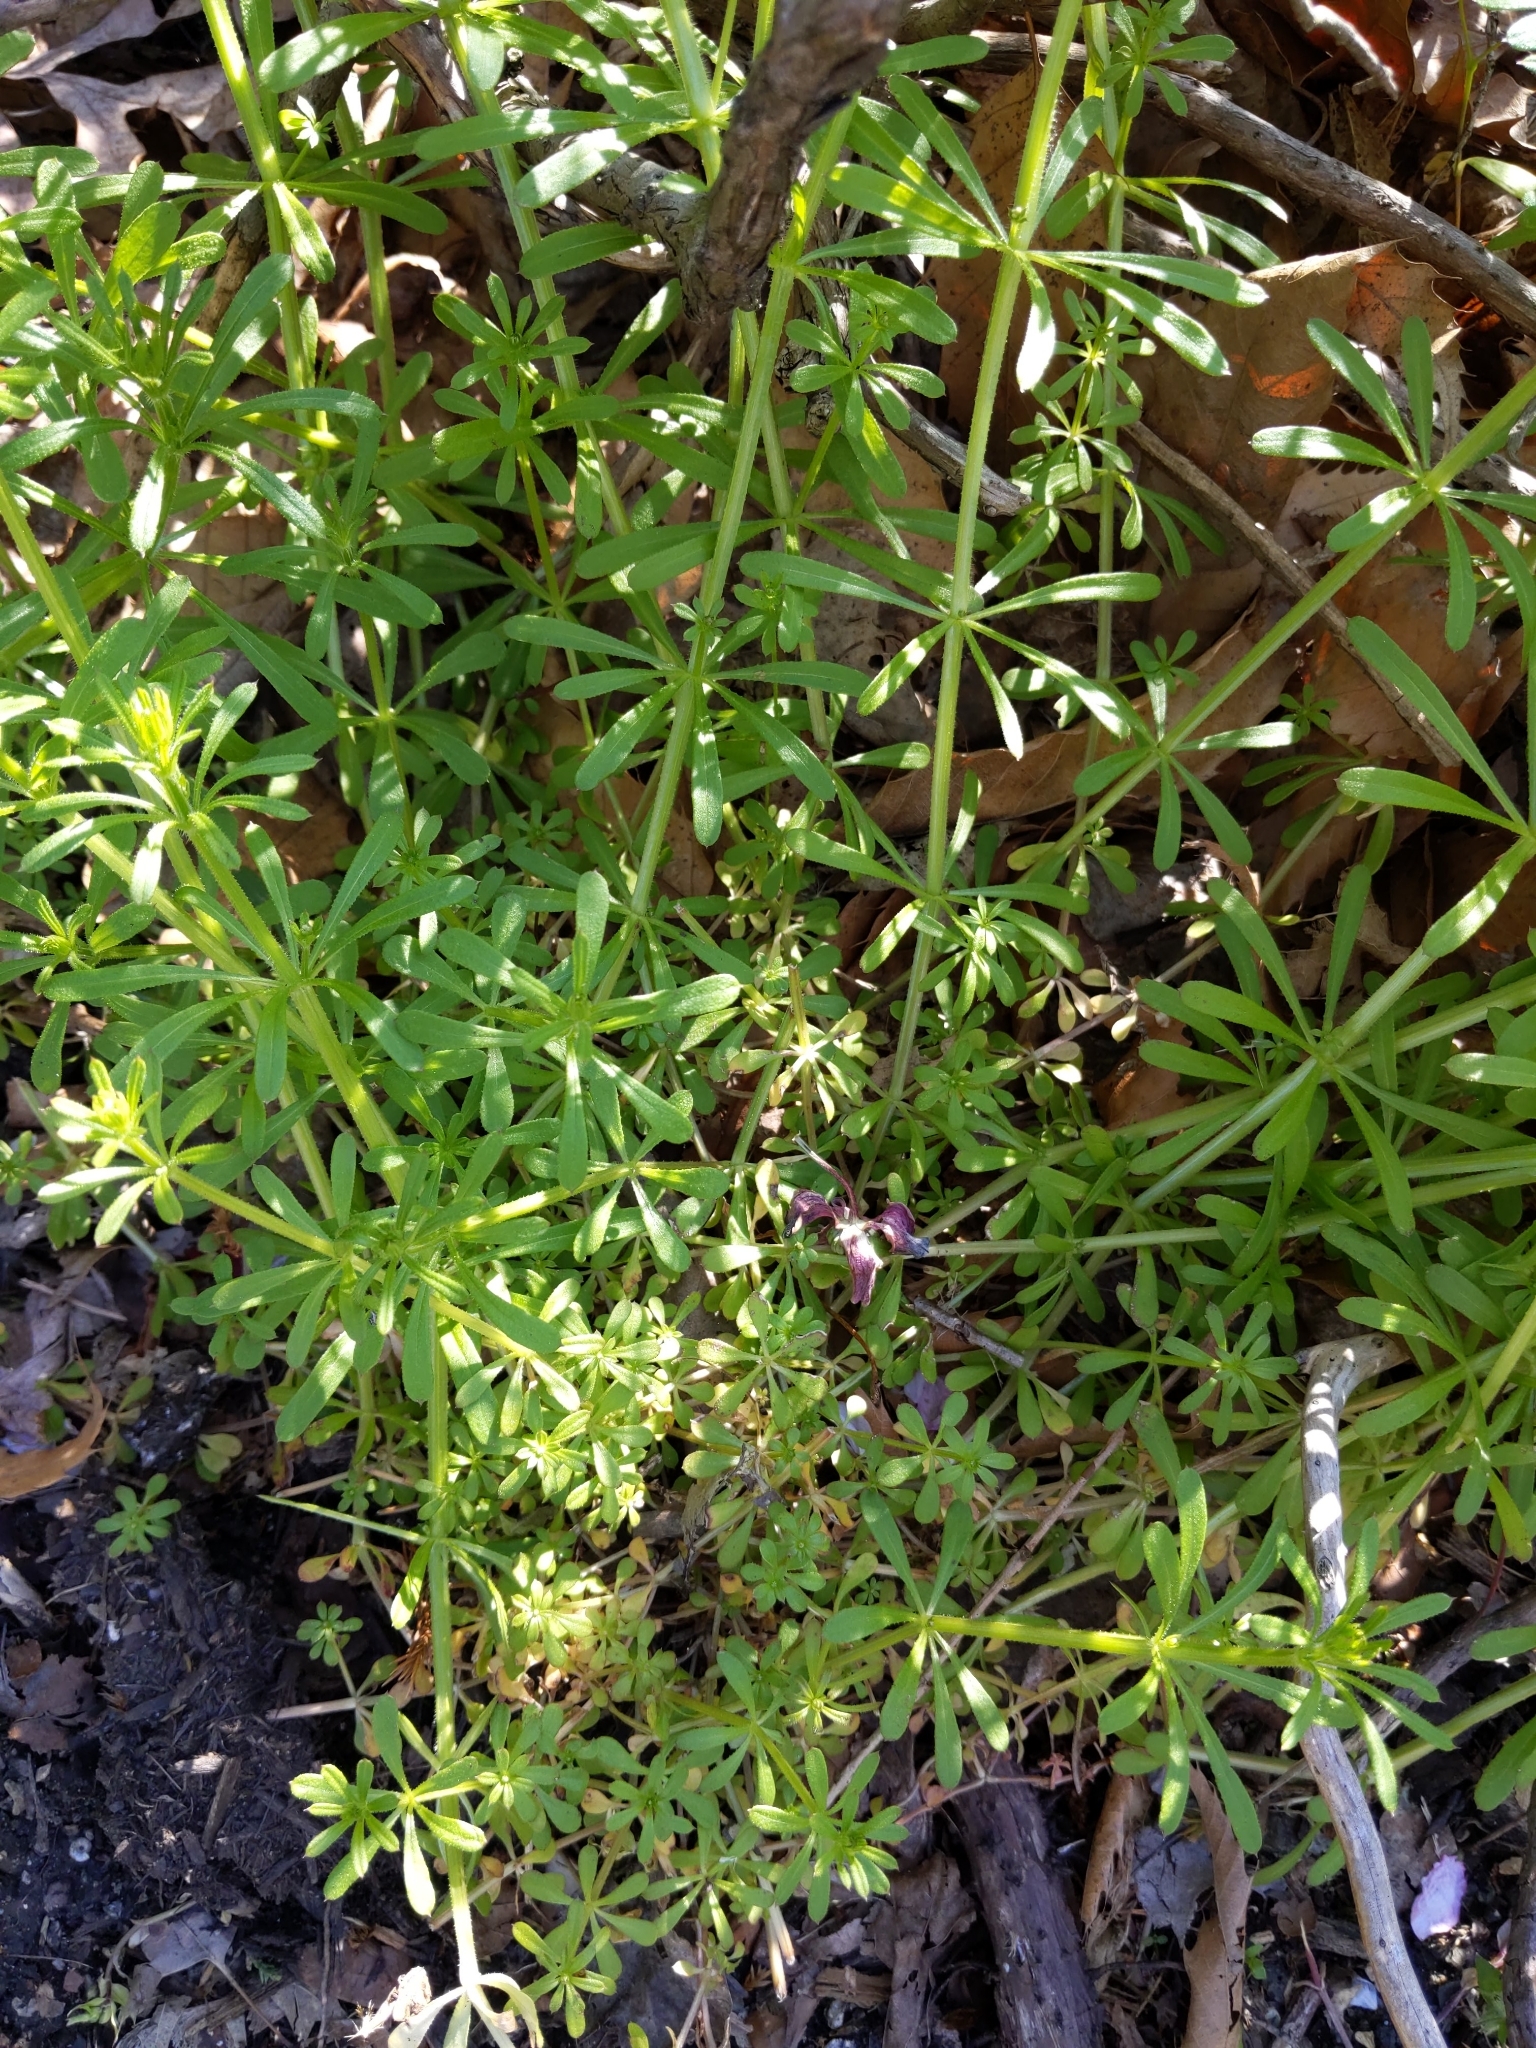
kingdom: Plantae
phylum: Tracheophyta
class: Magnoliopsida
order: Gentianales
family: Rubiaceae
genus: Galium
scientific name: Galium aparine
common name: Cleavers
